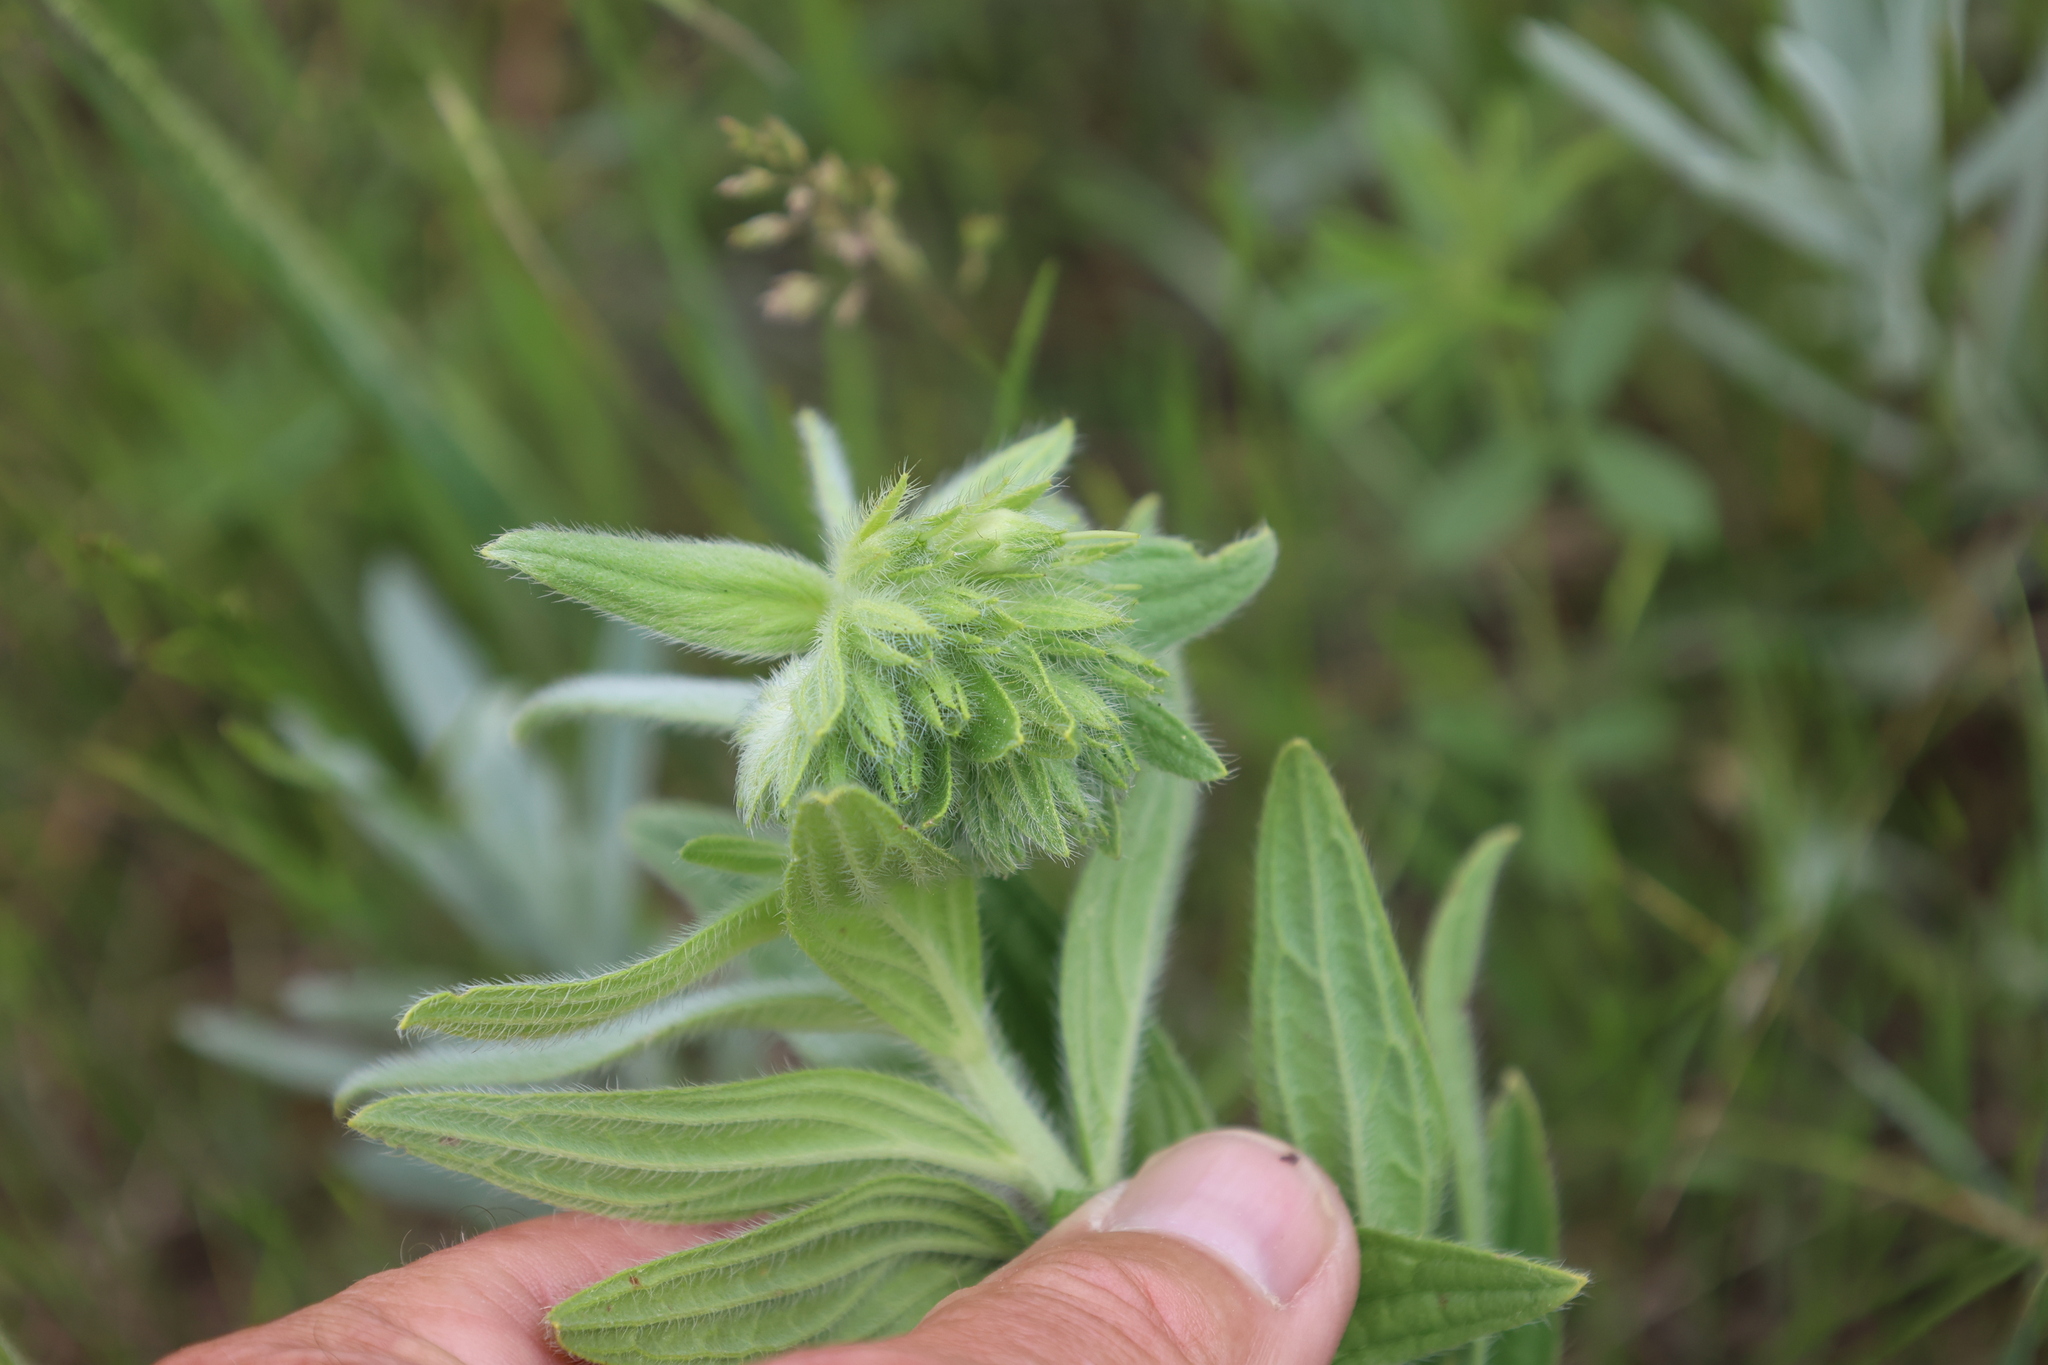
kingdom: Plantae
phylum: Tracheophyta
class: Magnoliopsida
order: Boraginales
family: Boraginaceae
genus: Lithospermum
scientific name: Lithospermum occidentale
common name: Western false gromwell
